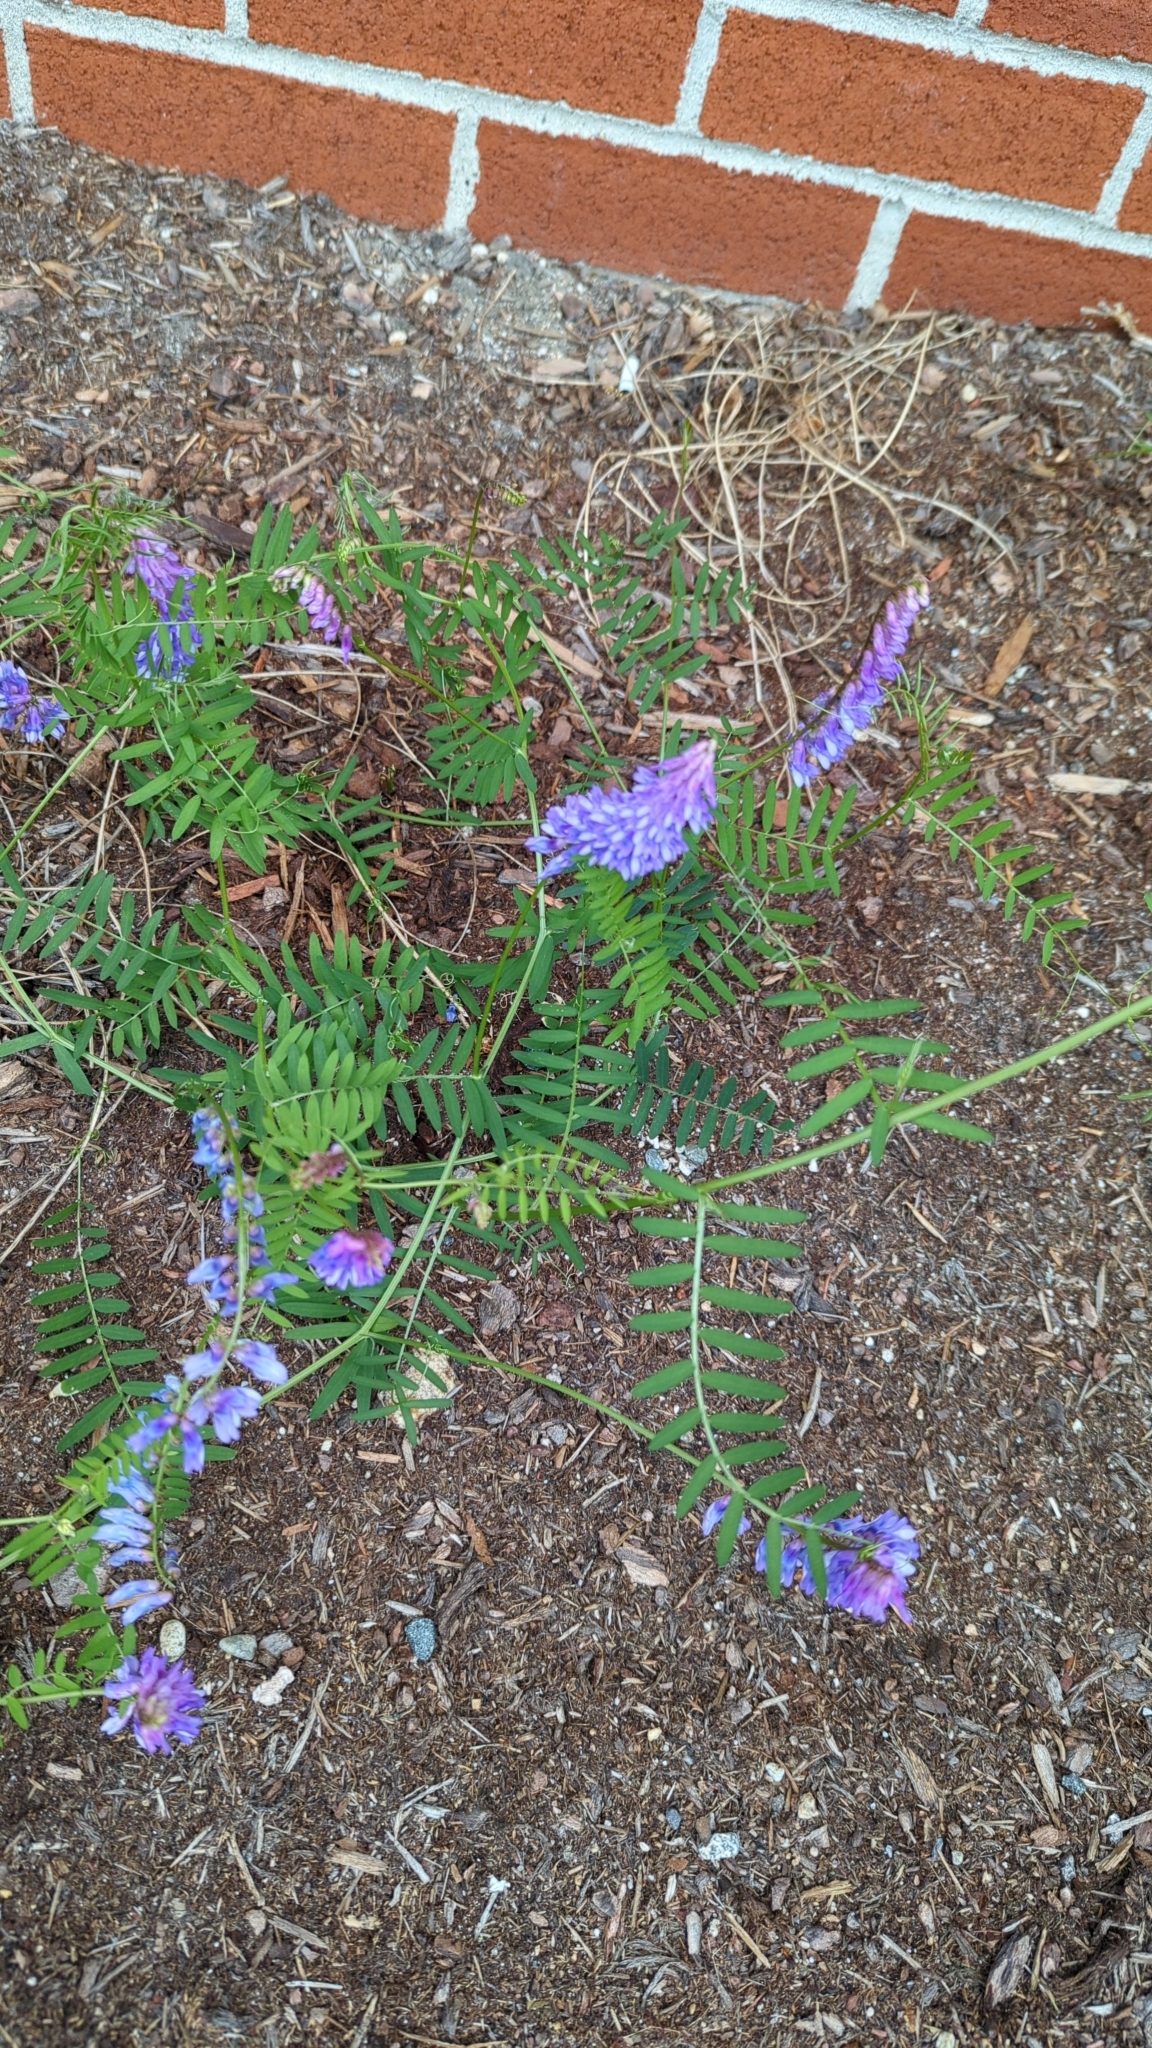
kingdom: Plantae
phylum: Tracheophyta
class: Magnoliopsida
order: Fabales
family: Fabaceae
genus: Vicia
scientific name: Vicia cracca
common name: Bird vetch
